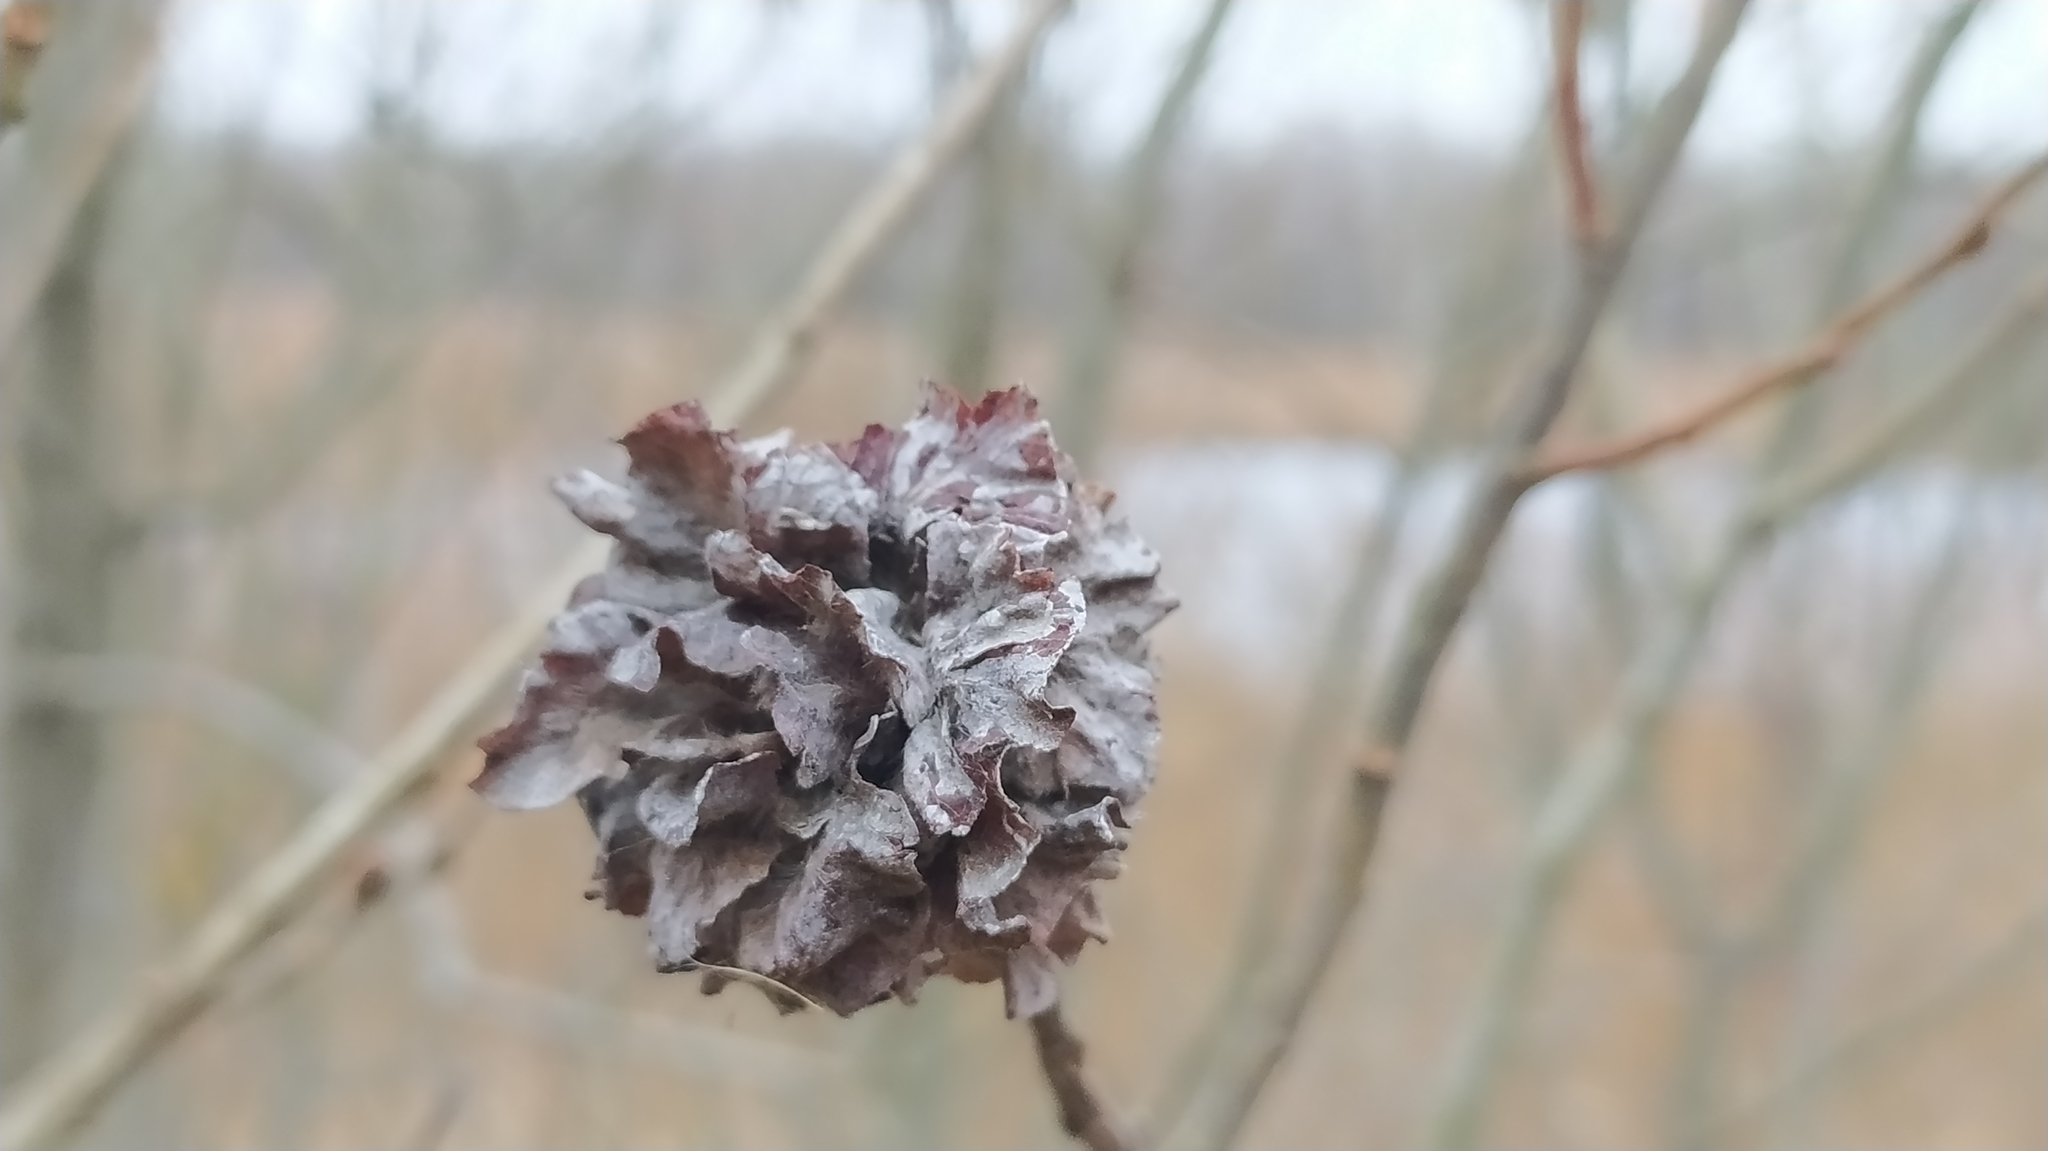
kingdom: Animalia
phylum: Arthropoda
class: Insecta
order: Diptera
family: Cecidomyiidae
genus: Rabdophaga
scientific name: Rabdophaga rosaria
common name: Willow rose gall midge
